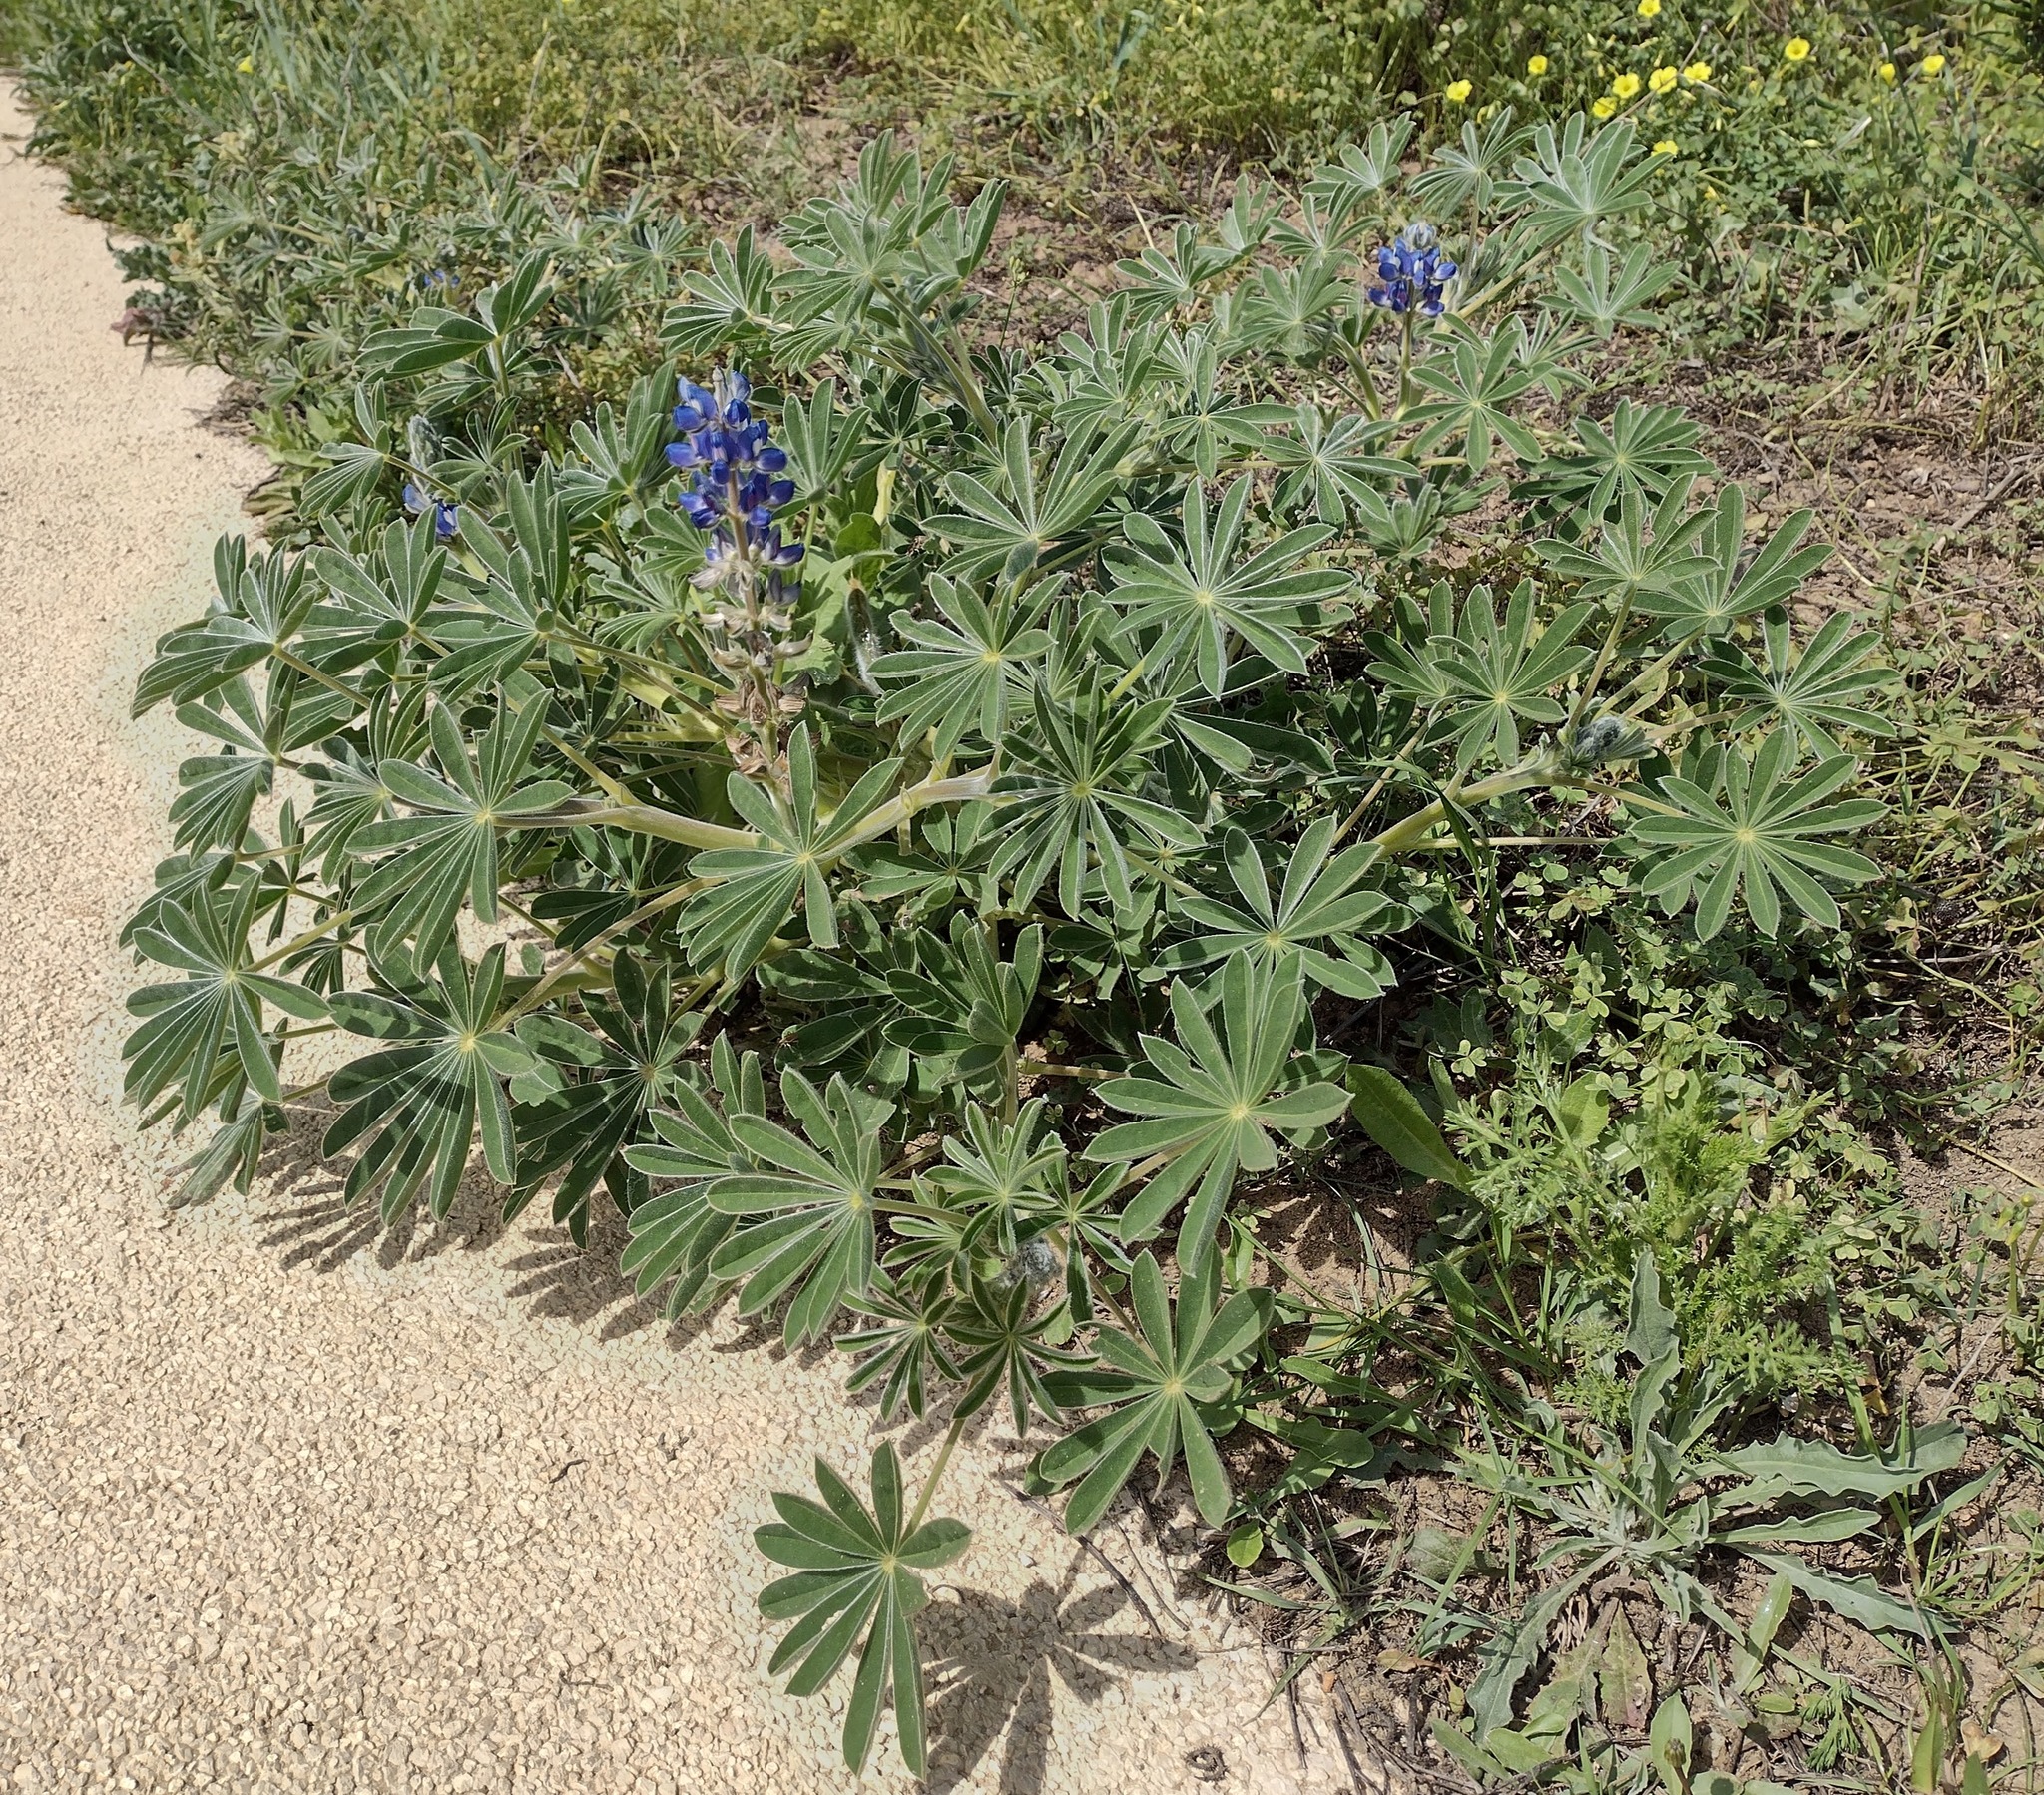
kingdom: Plantae
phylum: Tracheophyta
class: Magnoliopsida
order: Fabales
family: Fabaceae
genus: Lupinus
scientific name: Lupinus cosentinii
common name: Hairy blue lupin
